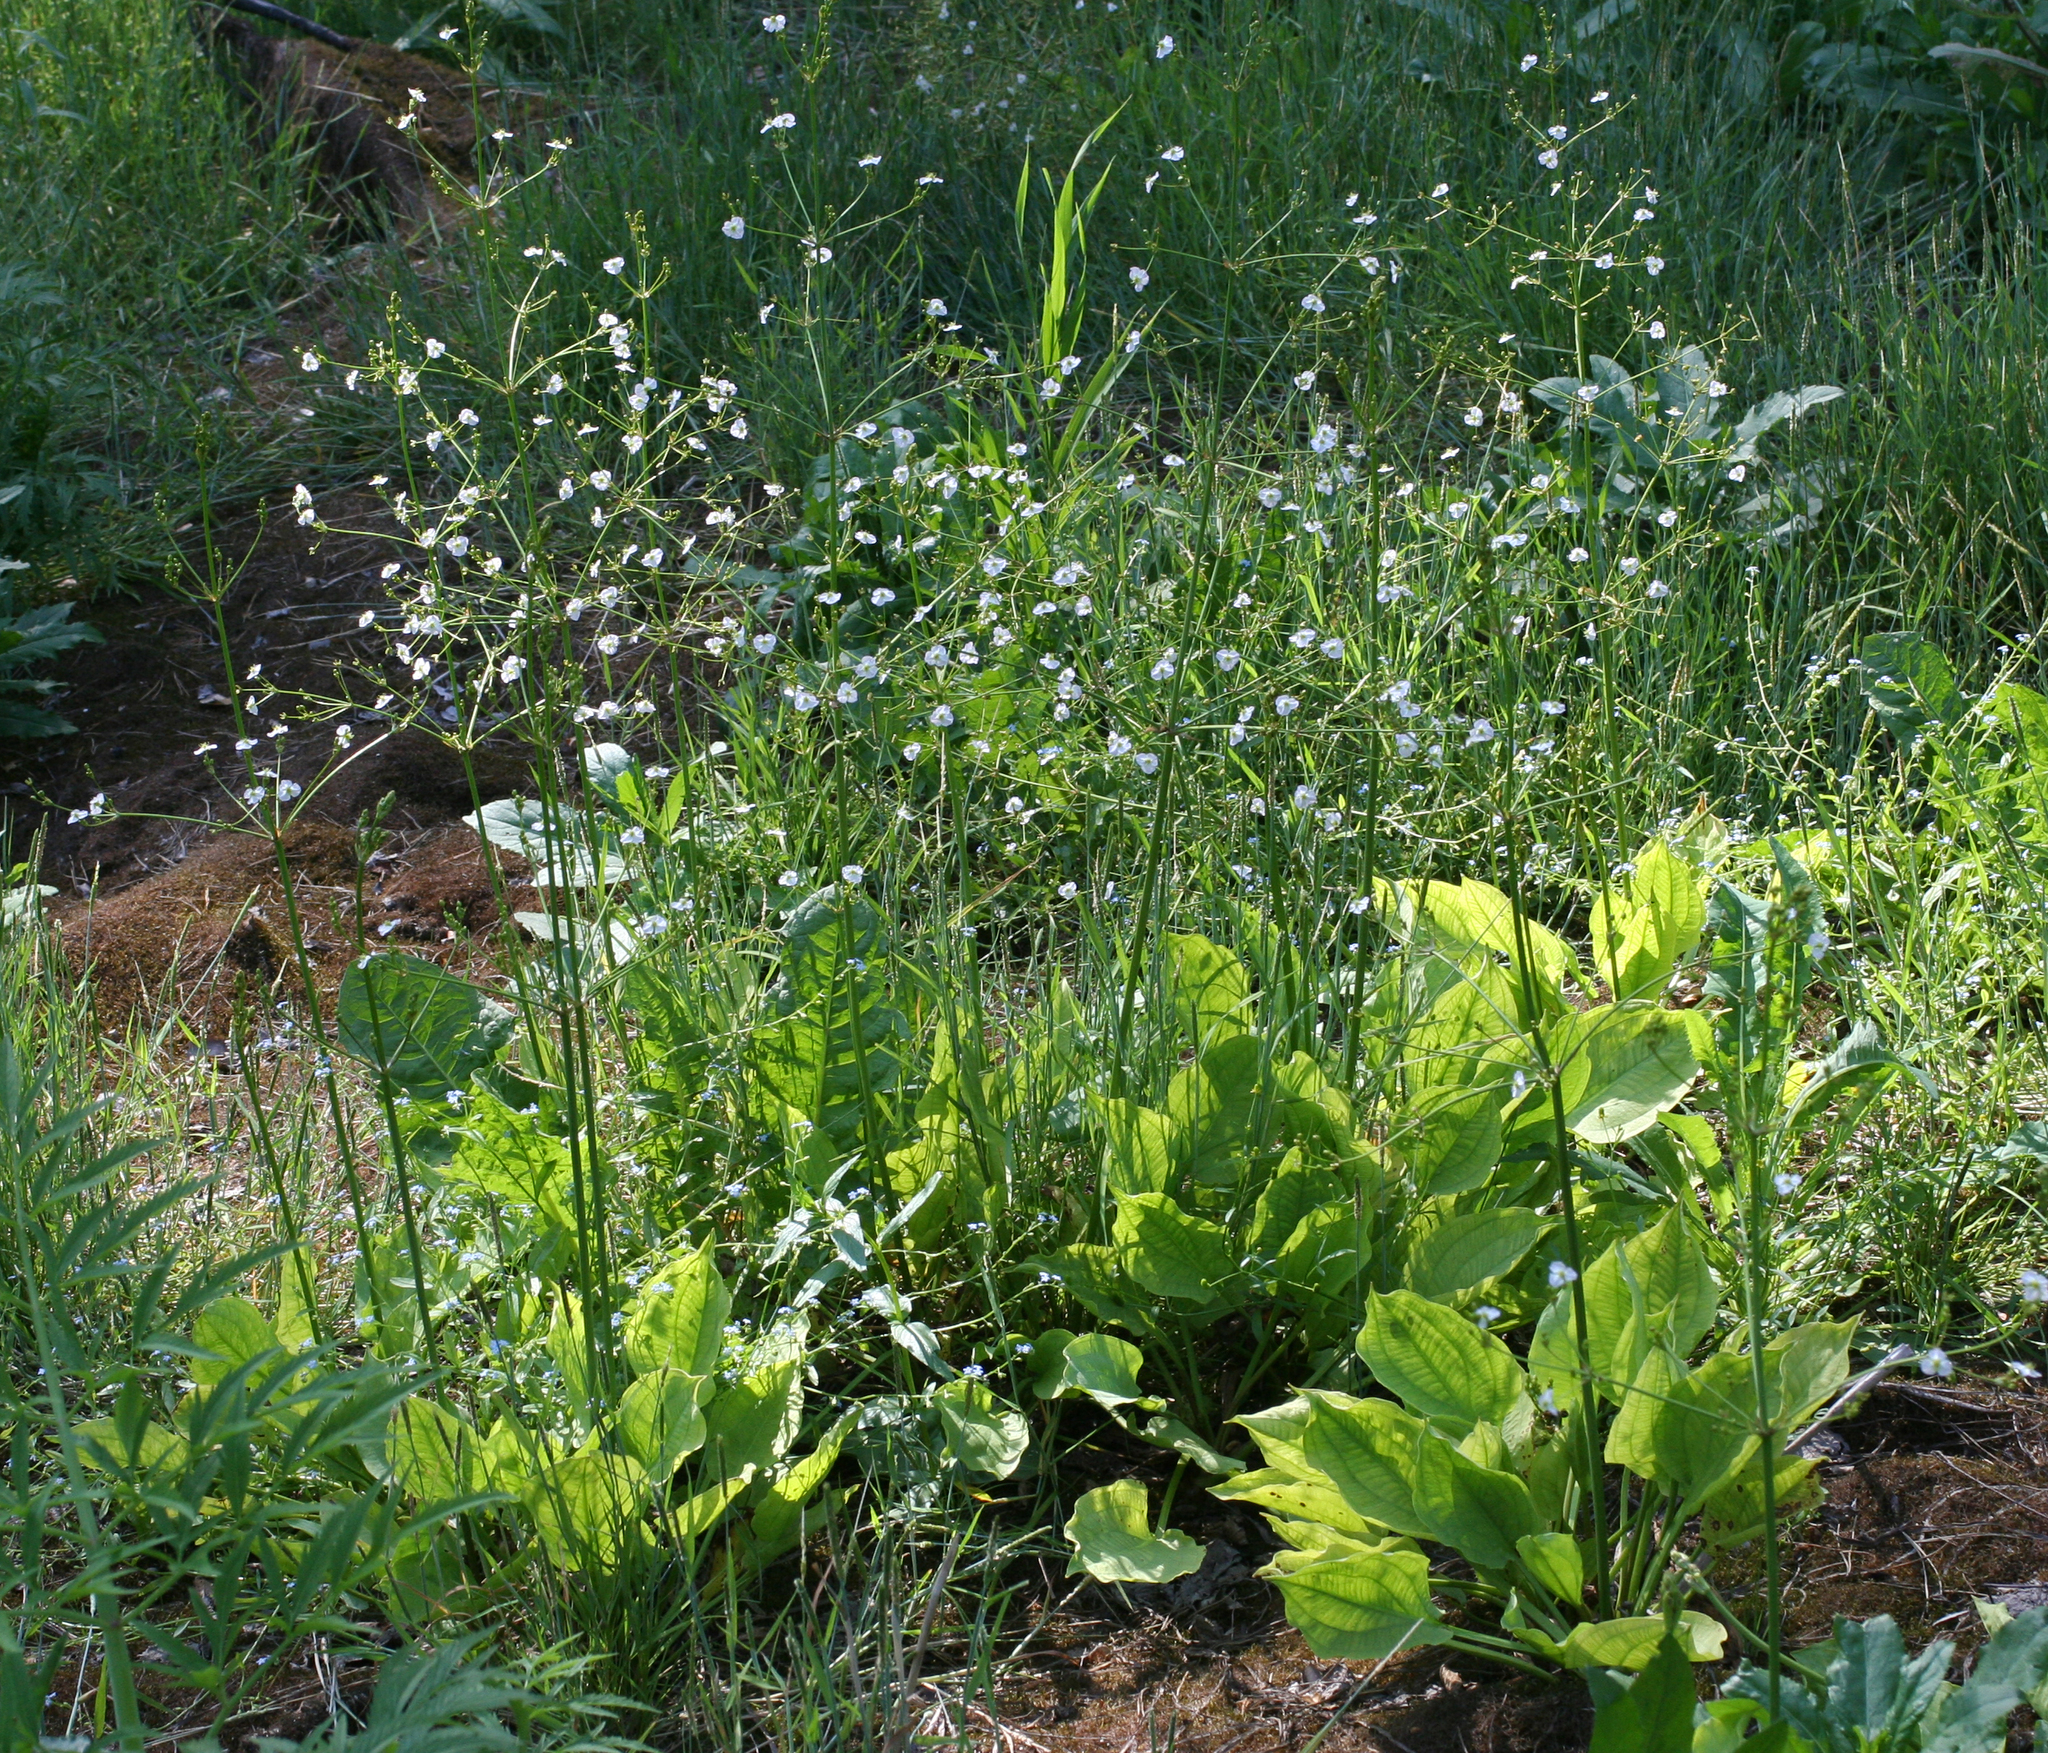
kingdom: Plantae
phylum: Tracheophyta
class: Liliopsida
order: Alismatales
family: Alismataceae
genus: Alisma
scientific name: Alisma plantago-aquatica
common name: Water-plantain
